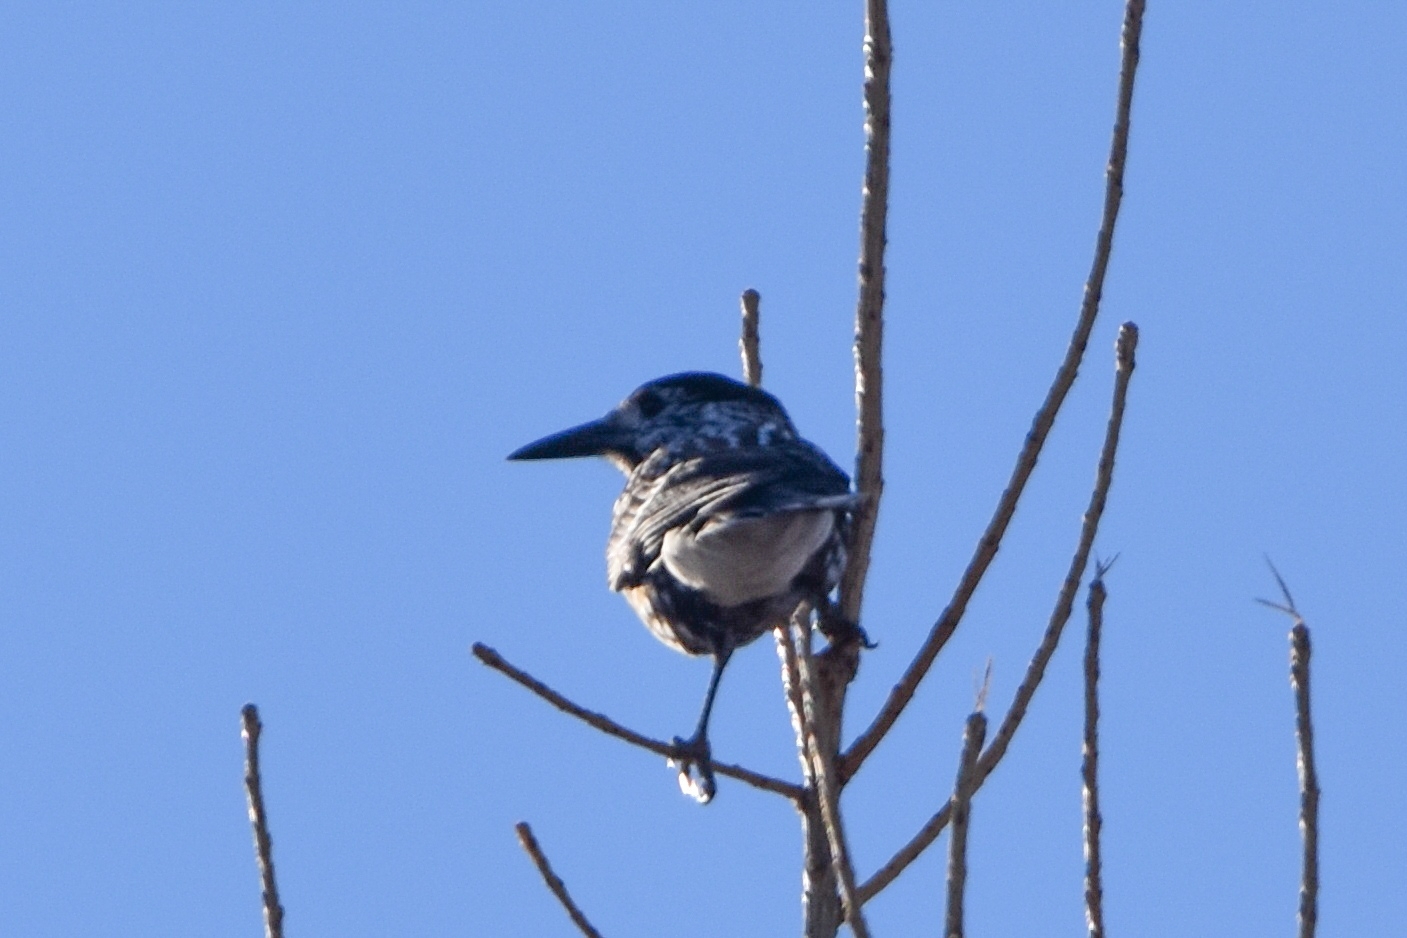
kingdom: Animalia
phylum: Chordata
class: Aves
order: Passeriformes
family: Corvidae
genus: Nucifraga
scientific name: Nucifraga caryocatactes
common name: Spotted nutcracker
